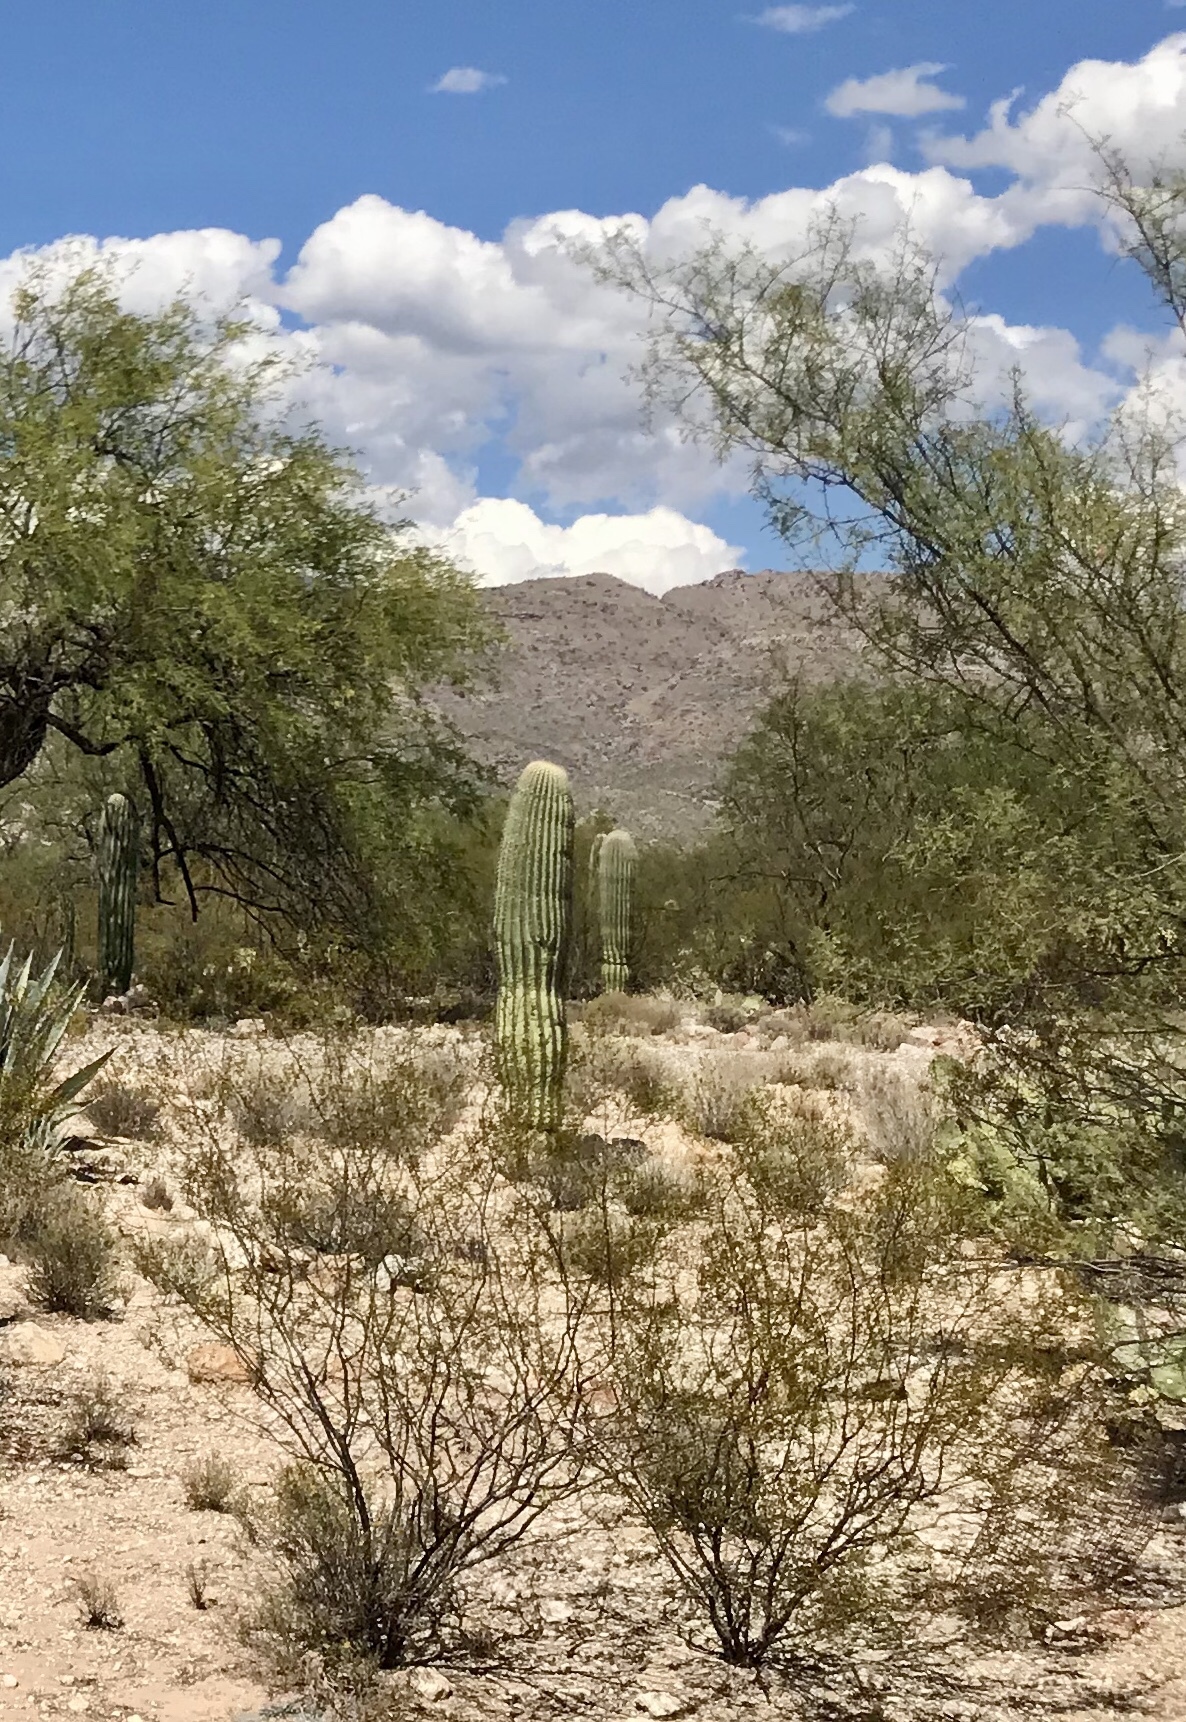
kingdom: Plantae
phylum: Tracheophyta
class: Magnoliopsida
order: Caryophyllales
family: Cactaceae
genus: Carnegiea
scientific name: Carnegiea gigantea
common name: Saguaro
